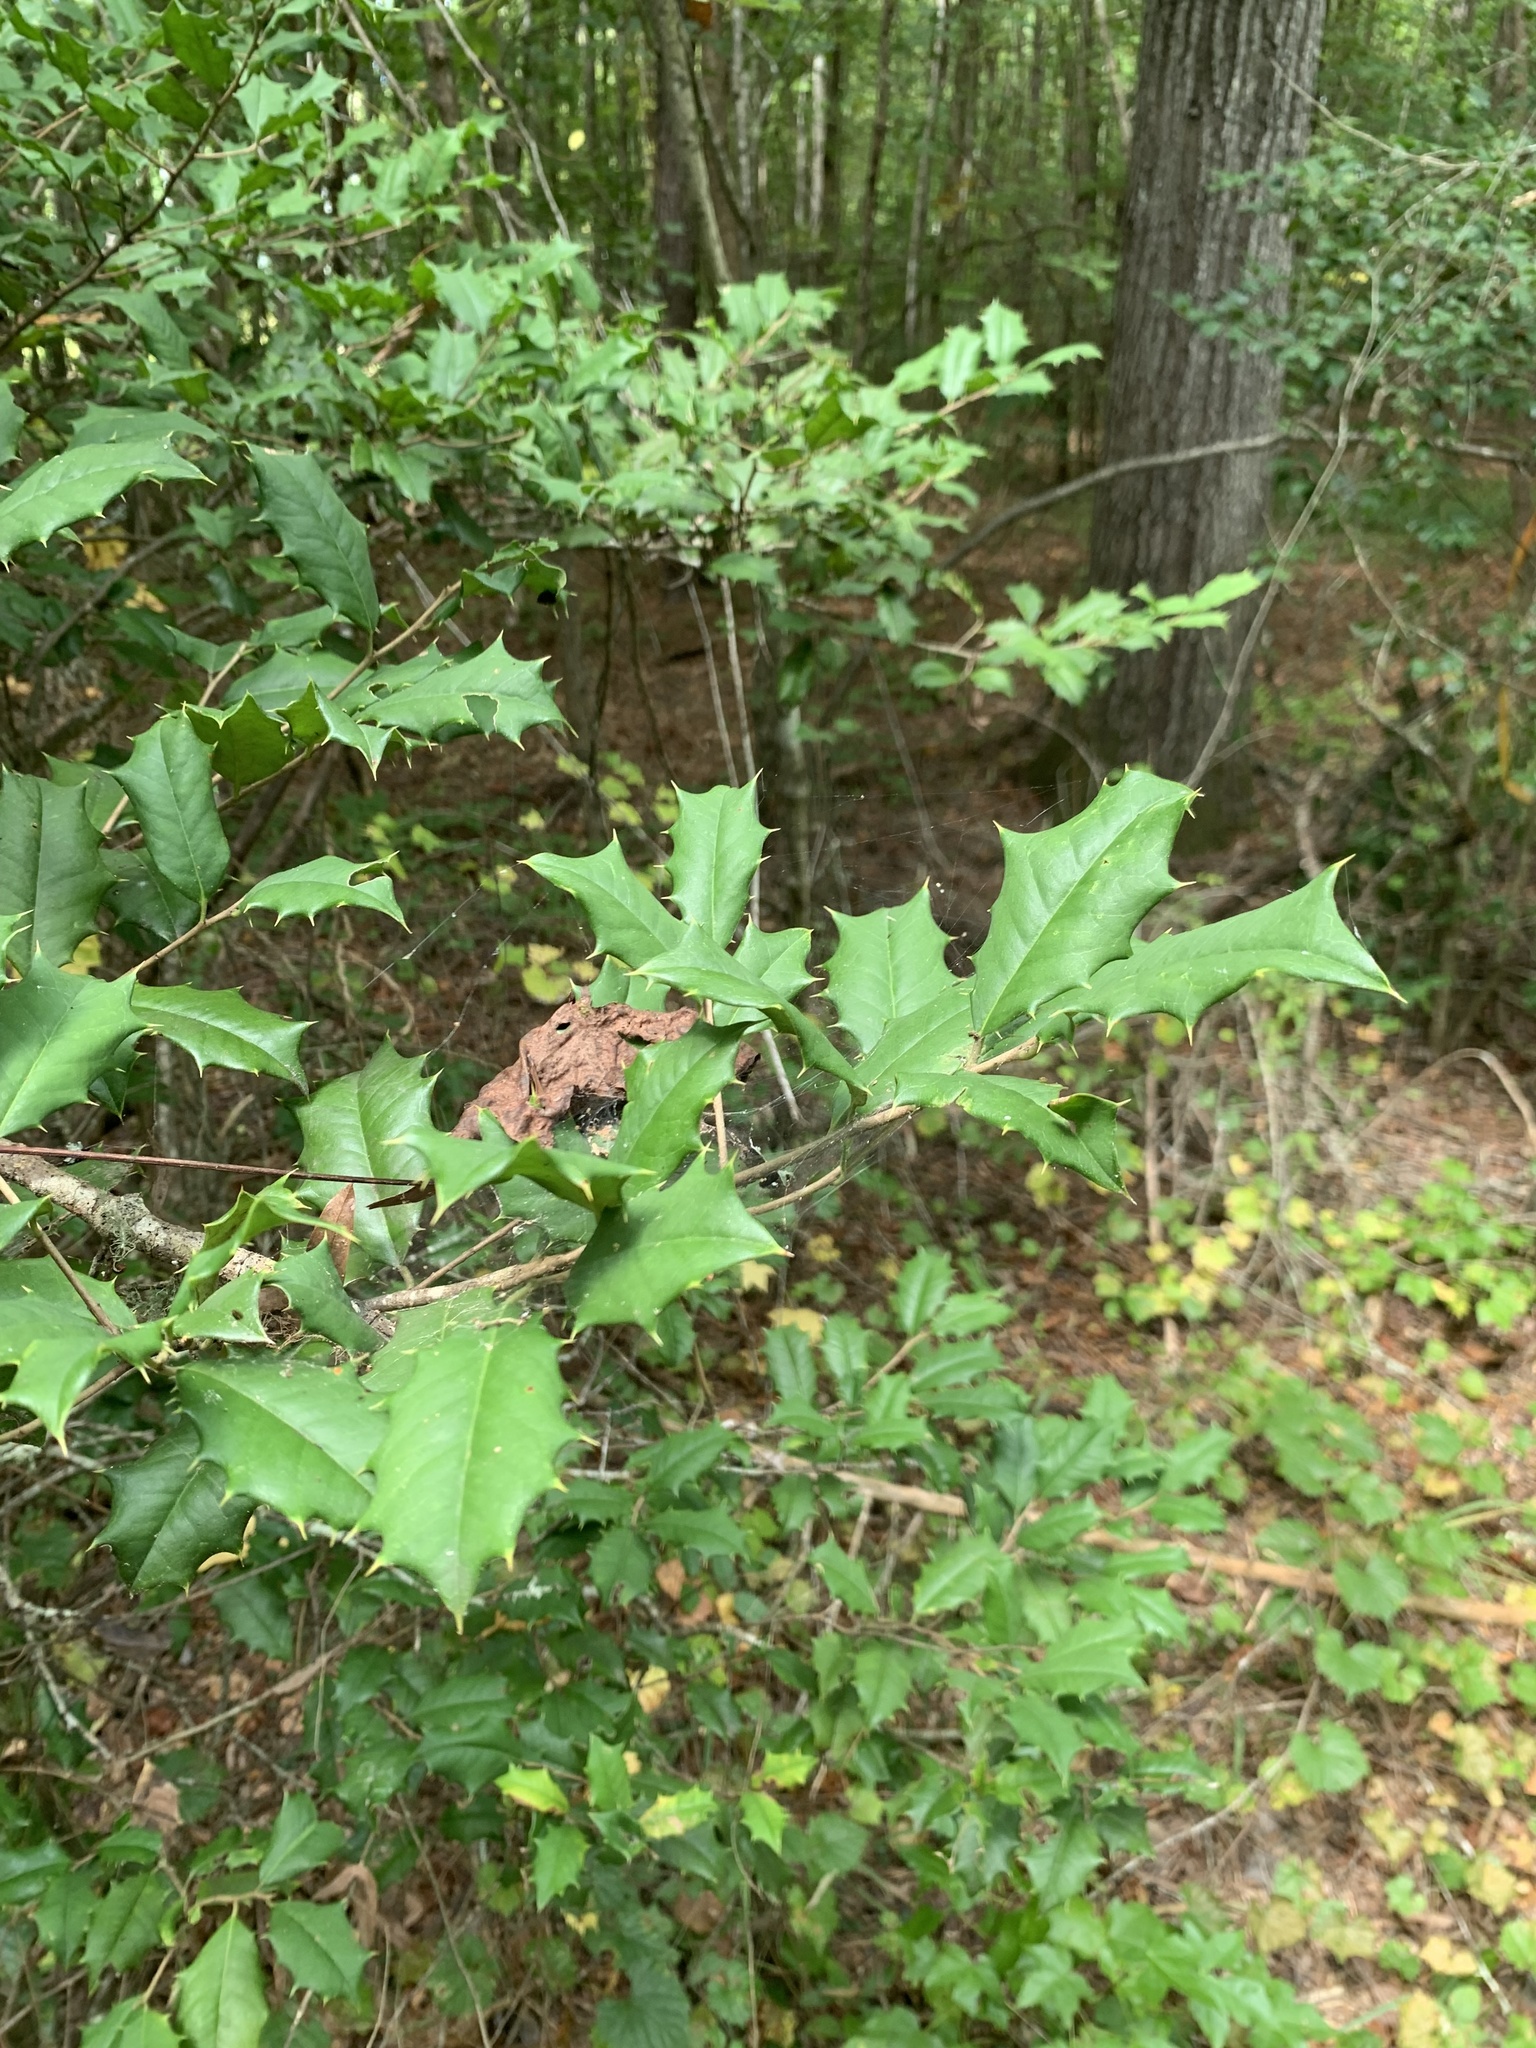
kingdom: Plantae
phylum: Tracheophyta
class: Magnoliopsida
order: Aquifoliales
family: Aquifoliaceae
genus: Ilex
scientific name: Ilex opaca
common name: American holly
